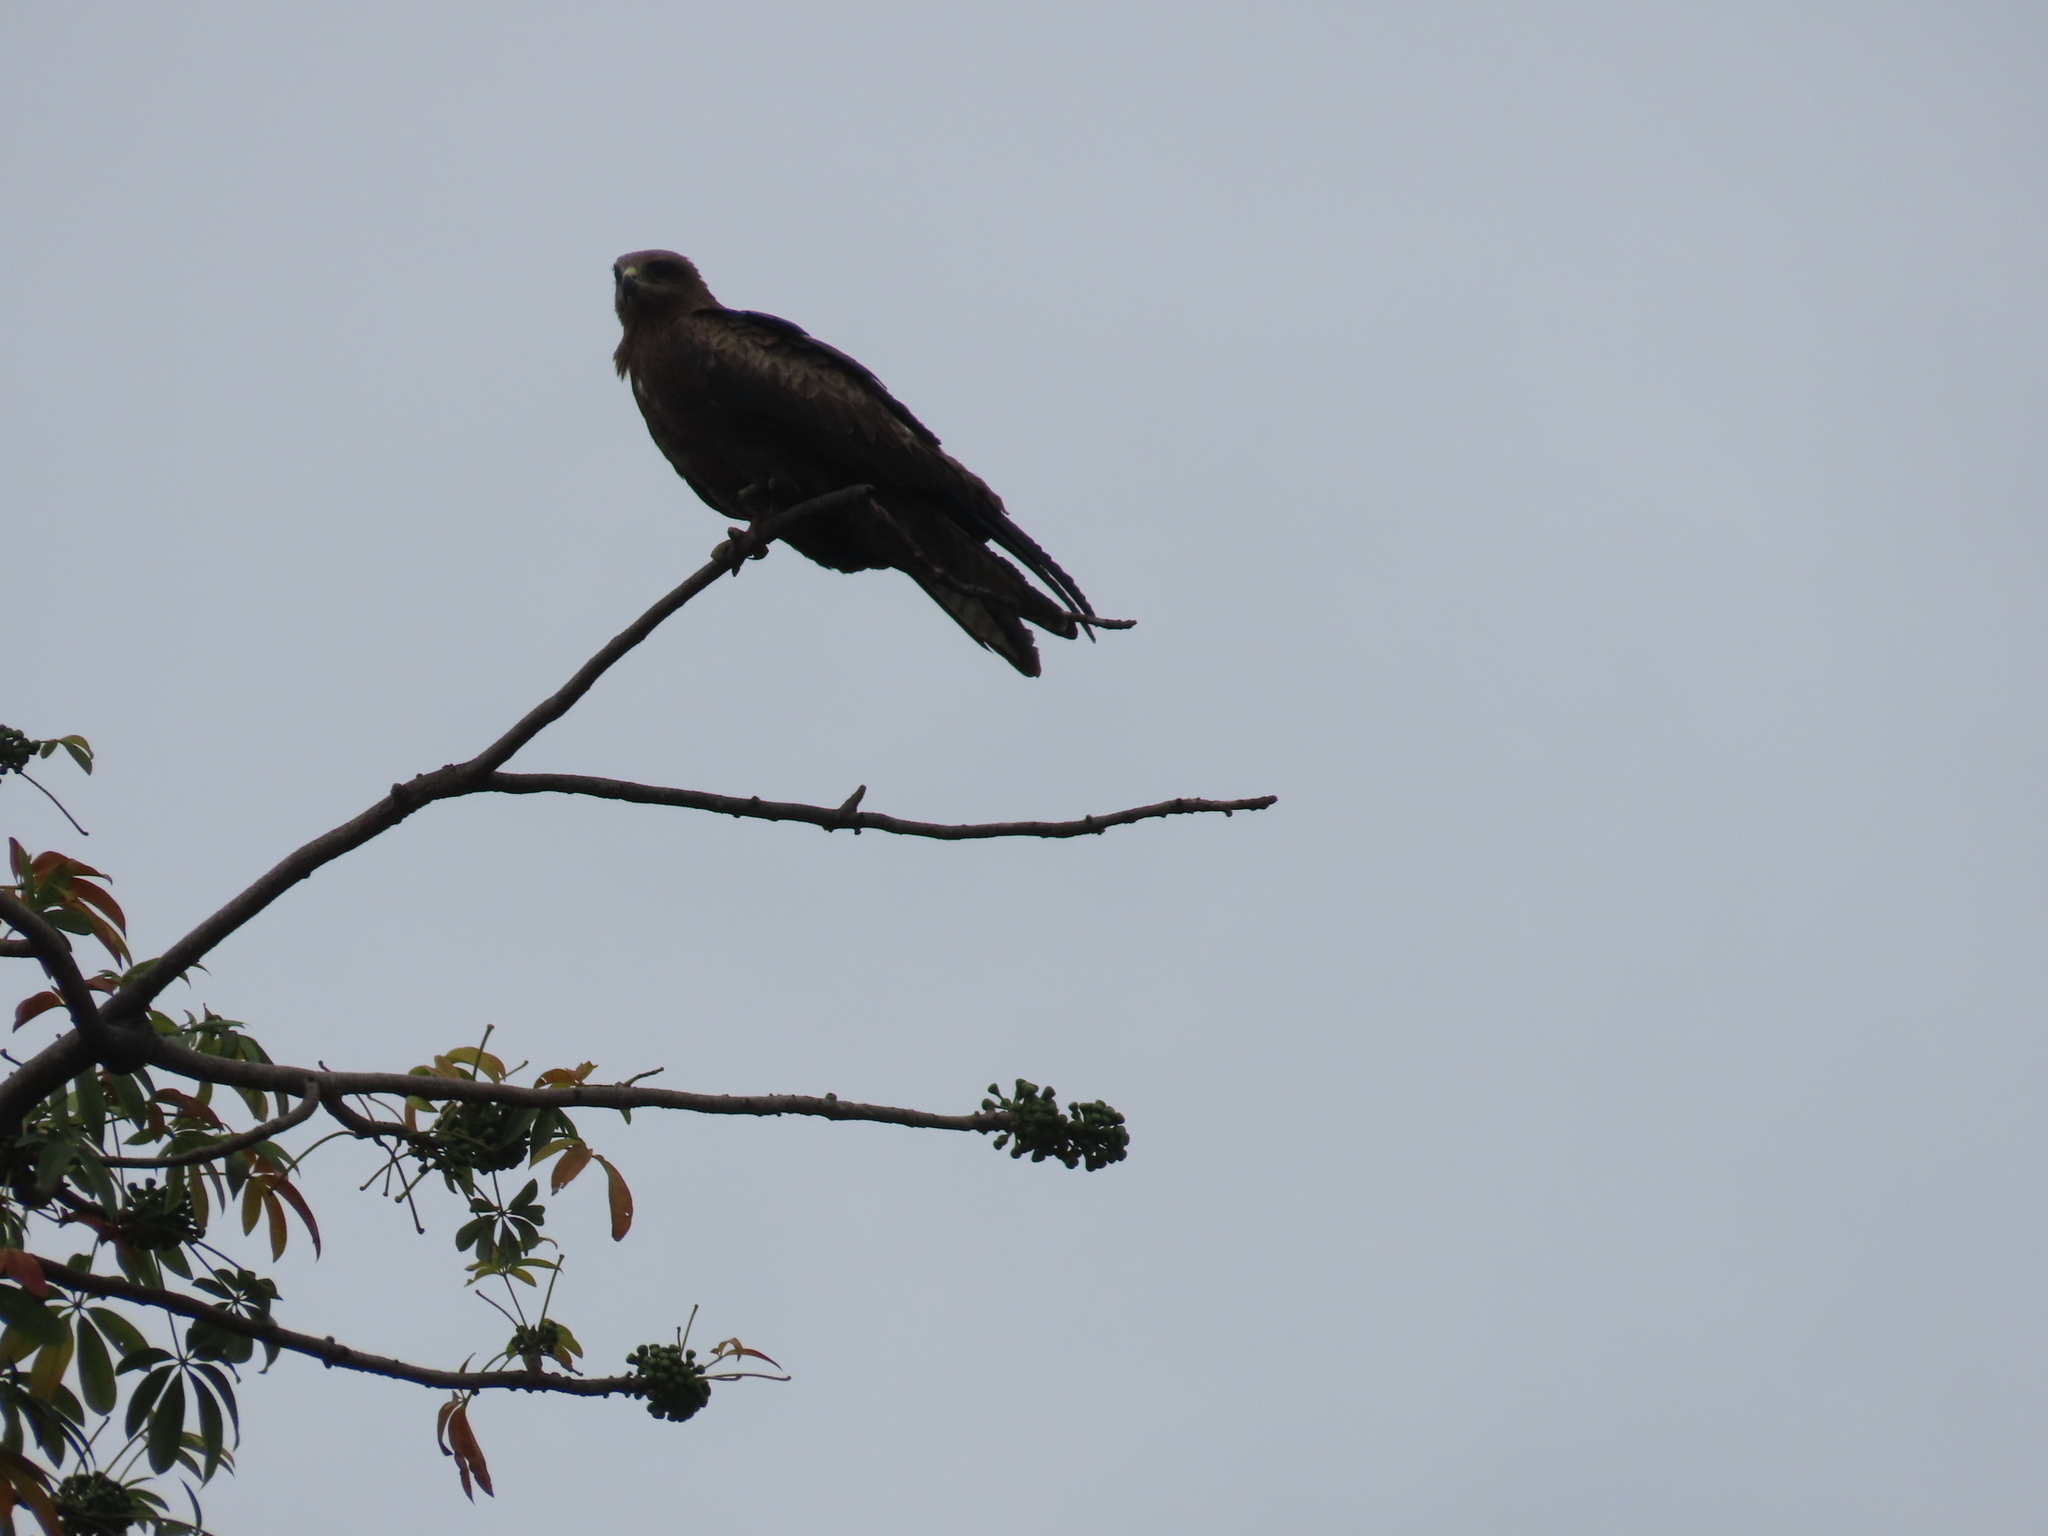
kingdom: Animalia
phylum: Chordata
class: Aves
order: Accipitriformes
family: Accipitridae
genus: Milvus
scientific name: Milvus migrans
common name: Black kite
